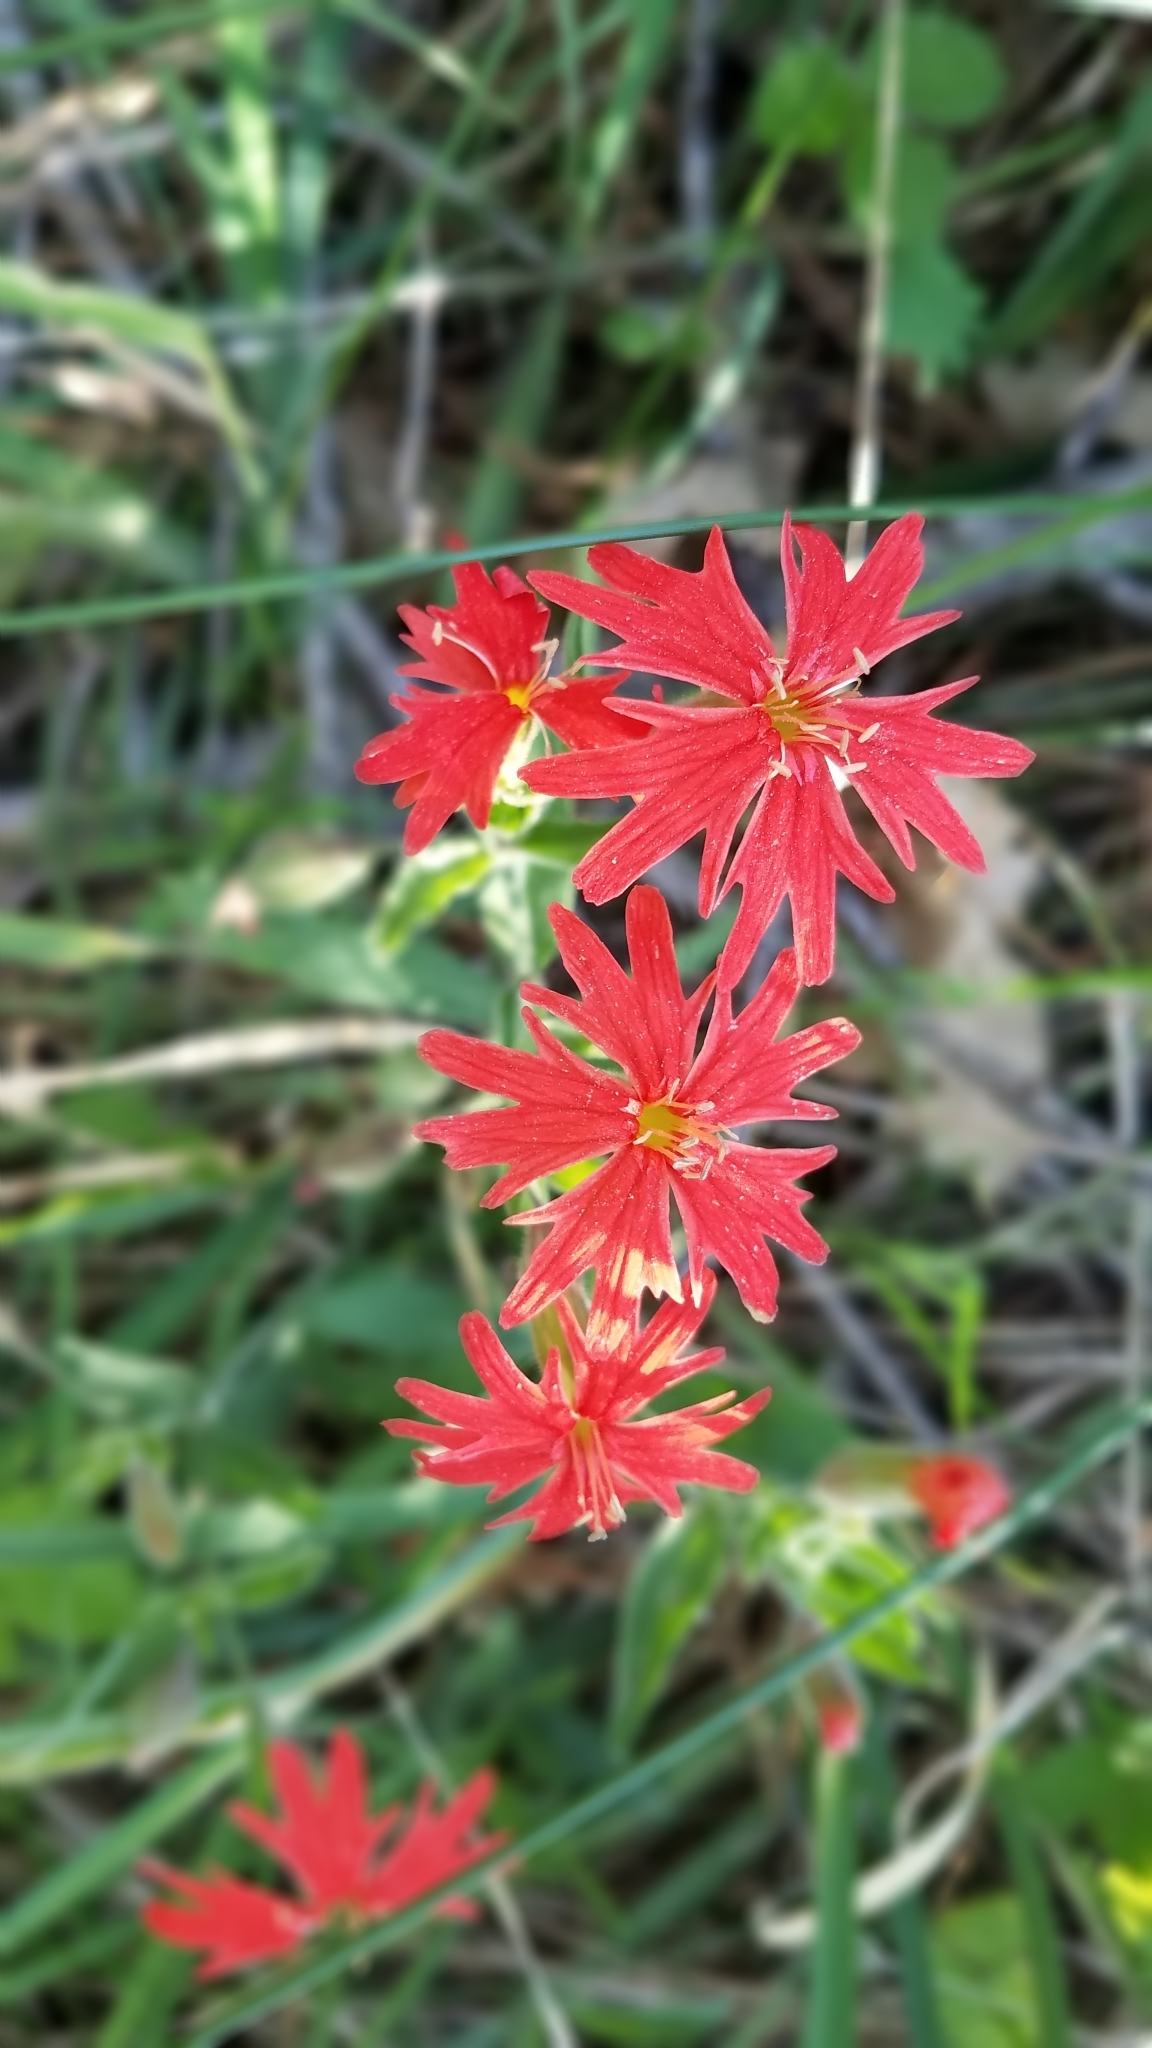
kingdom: Plantae
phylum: Tracheophyta
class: Magnoliopsida
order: Caryophyllales
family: Caryophyllaceae
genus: Silene
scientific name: Silene laciniata
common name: Indian-pink
